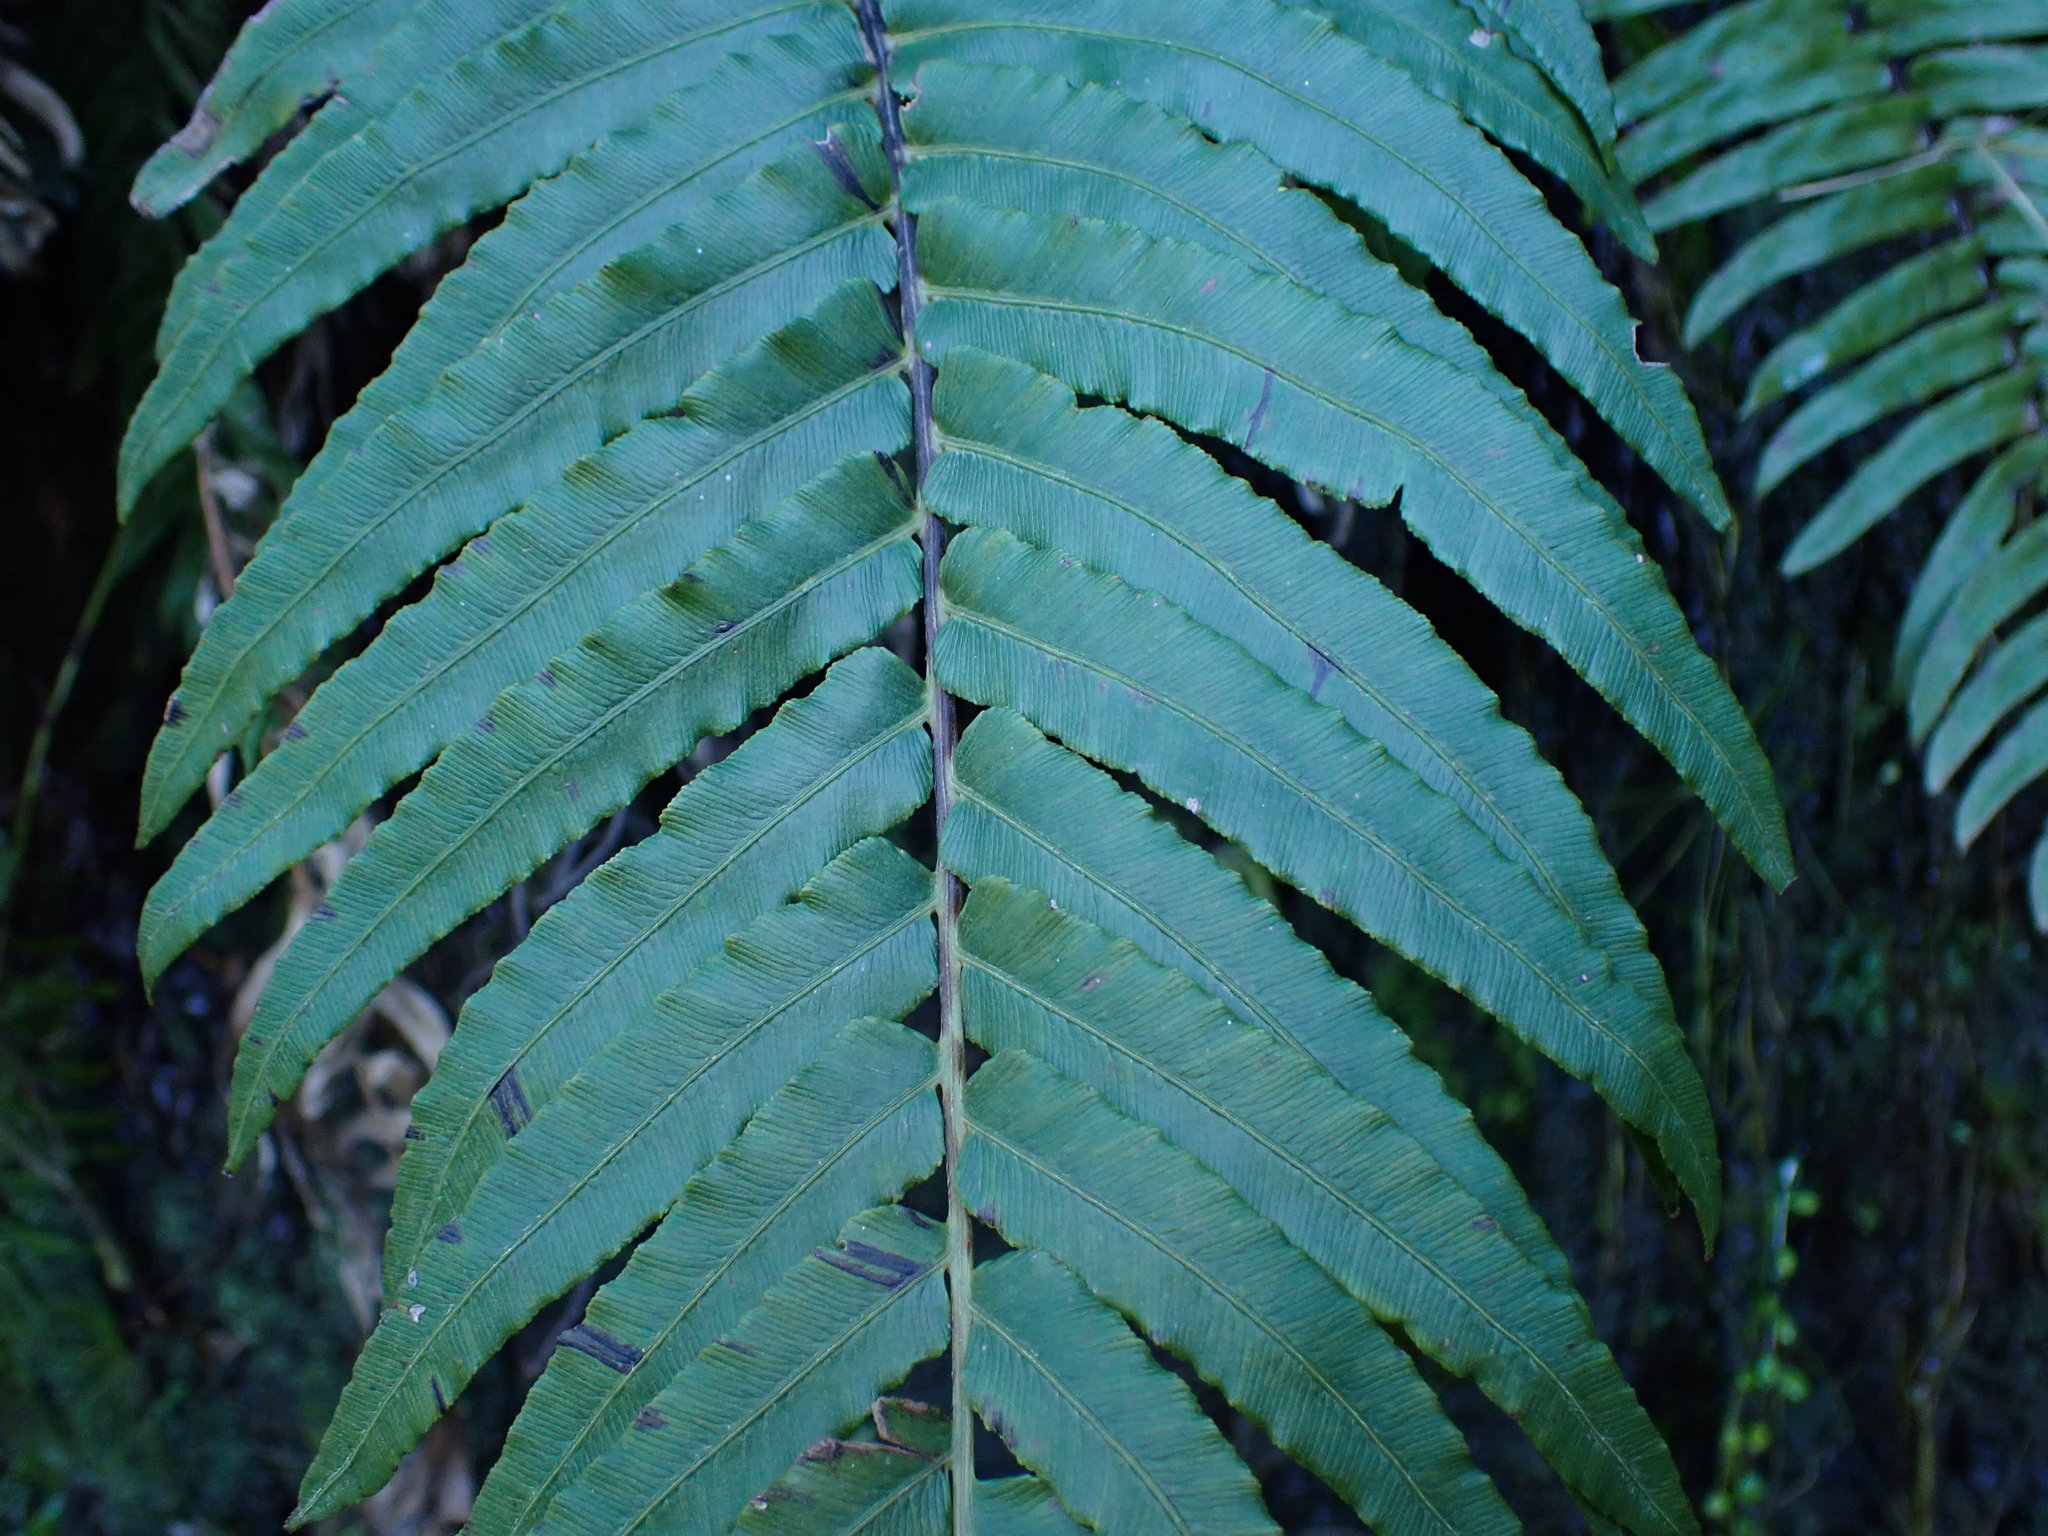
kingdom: Plantae
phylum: Tracheophyta
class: Polypodiopsida
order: Polypodiales
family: Blechnaceae
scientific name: Blechnaceae
